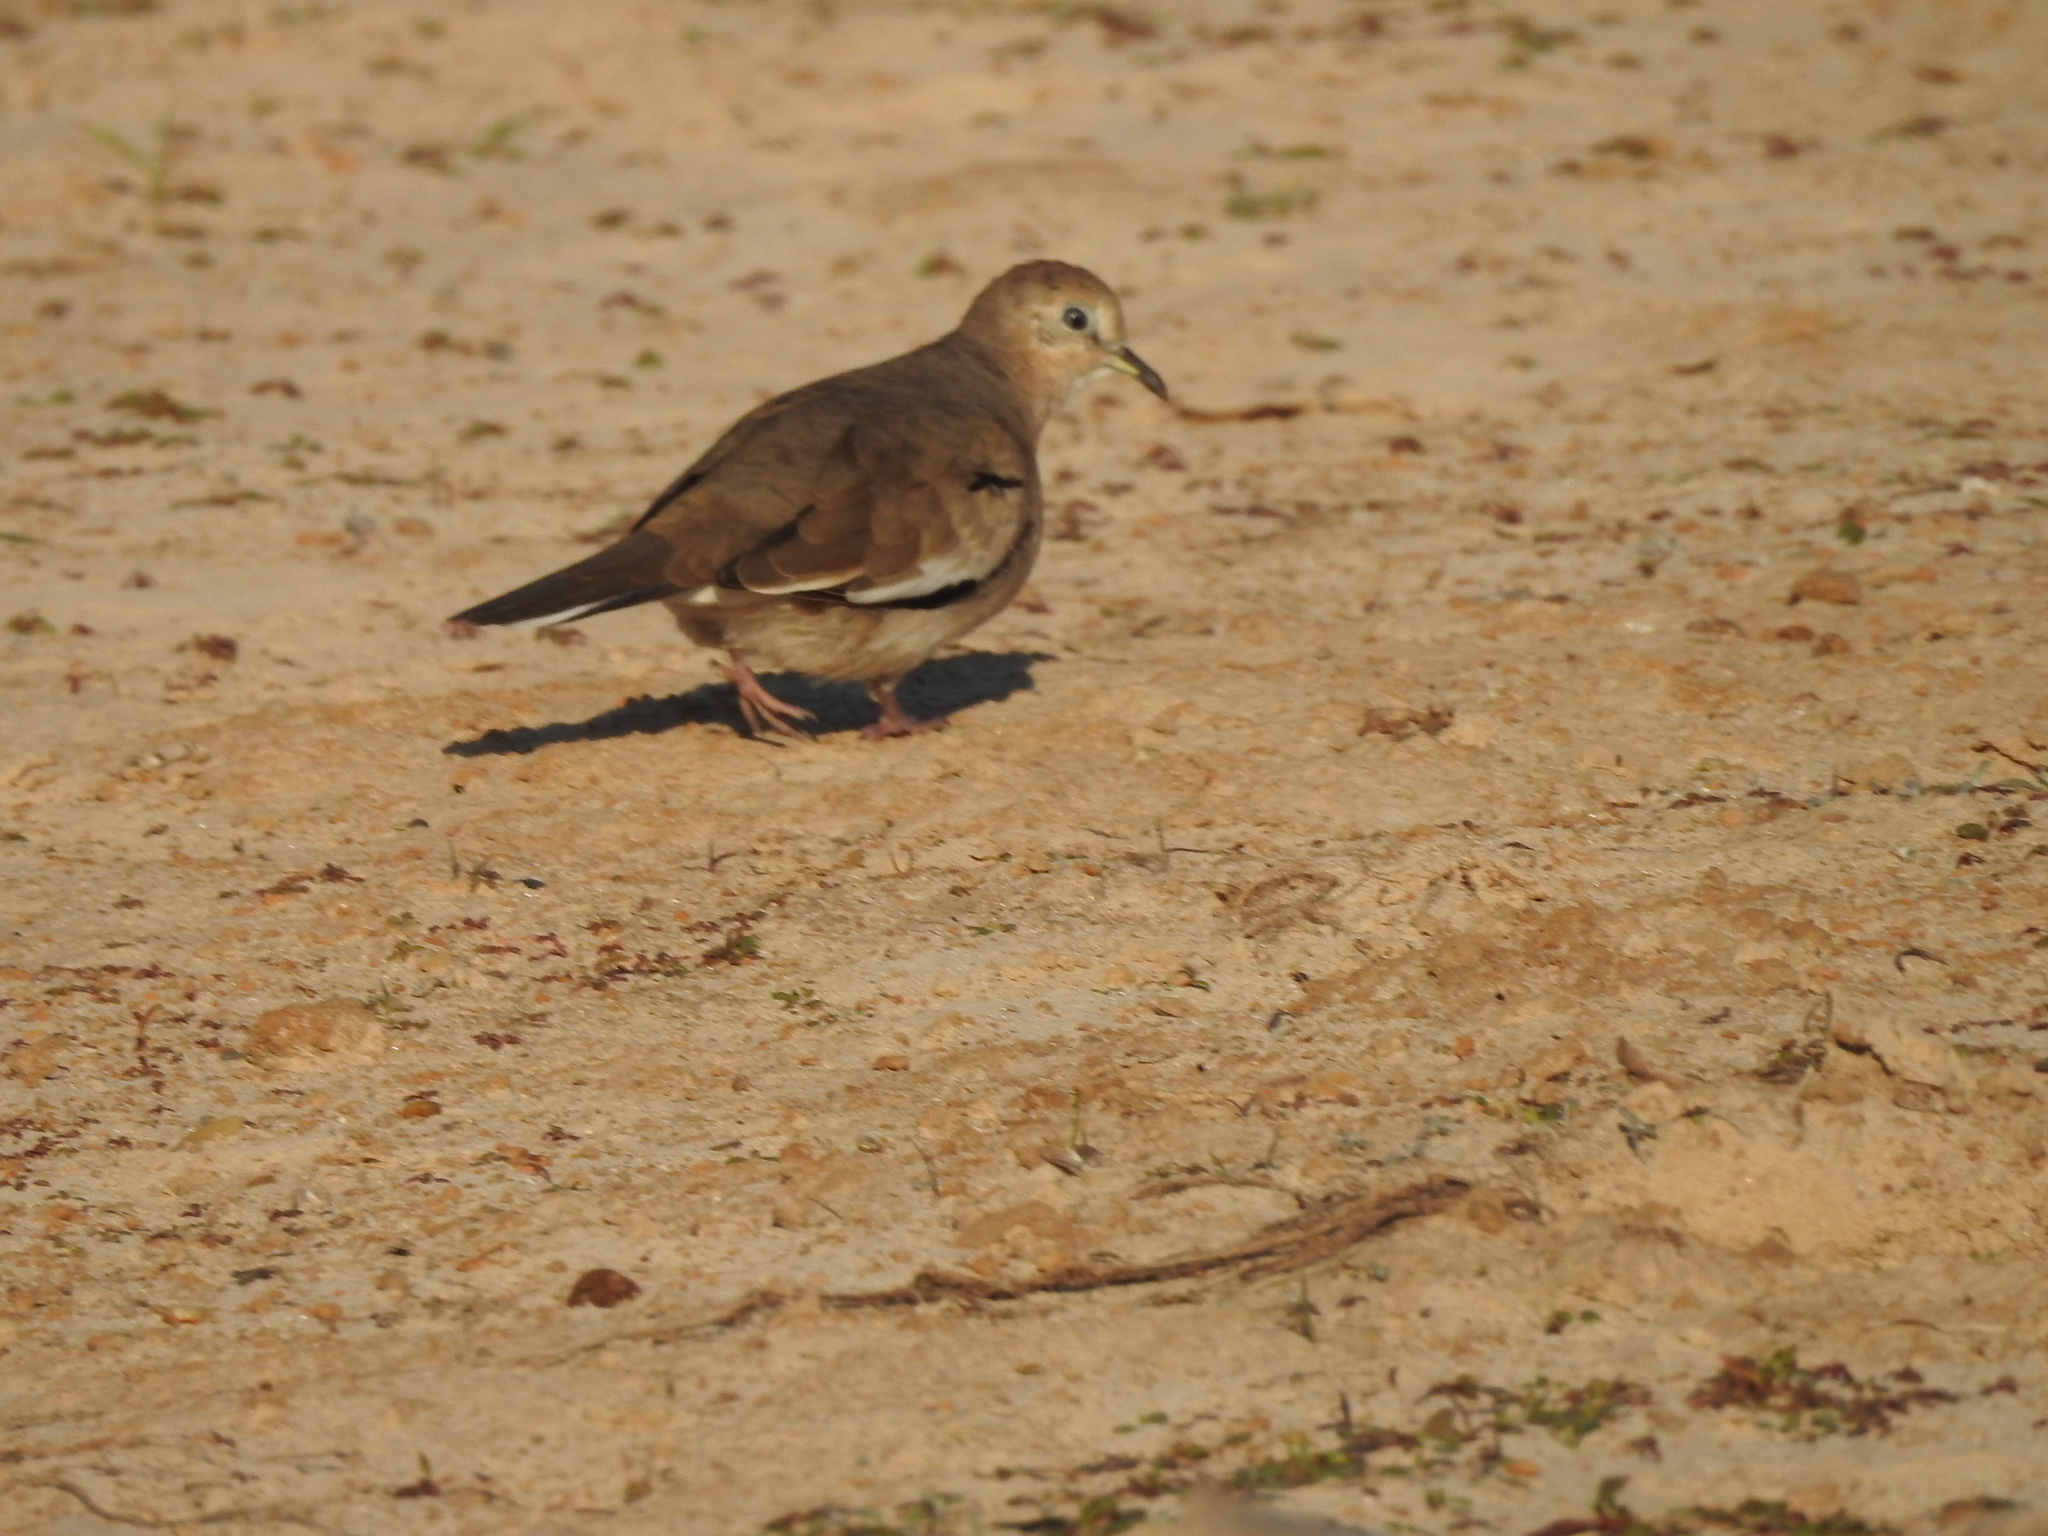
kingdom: Animalia
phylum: Chordata
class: Aves
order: Columbiformes
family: Columbidae
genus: Columbina
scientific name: Columbina picui
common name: Picui ground dove
